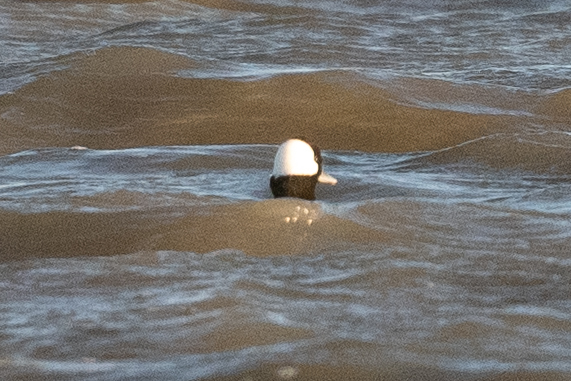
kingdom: Animalia
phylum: Chordata
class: Aves
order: Anseriformes
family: Anatidae
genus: Bucephala
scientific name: Bucephala albeola
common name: Bufflehead
